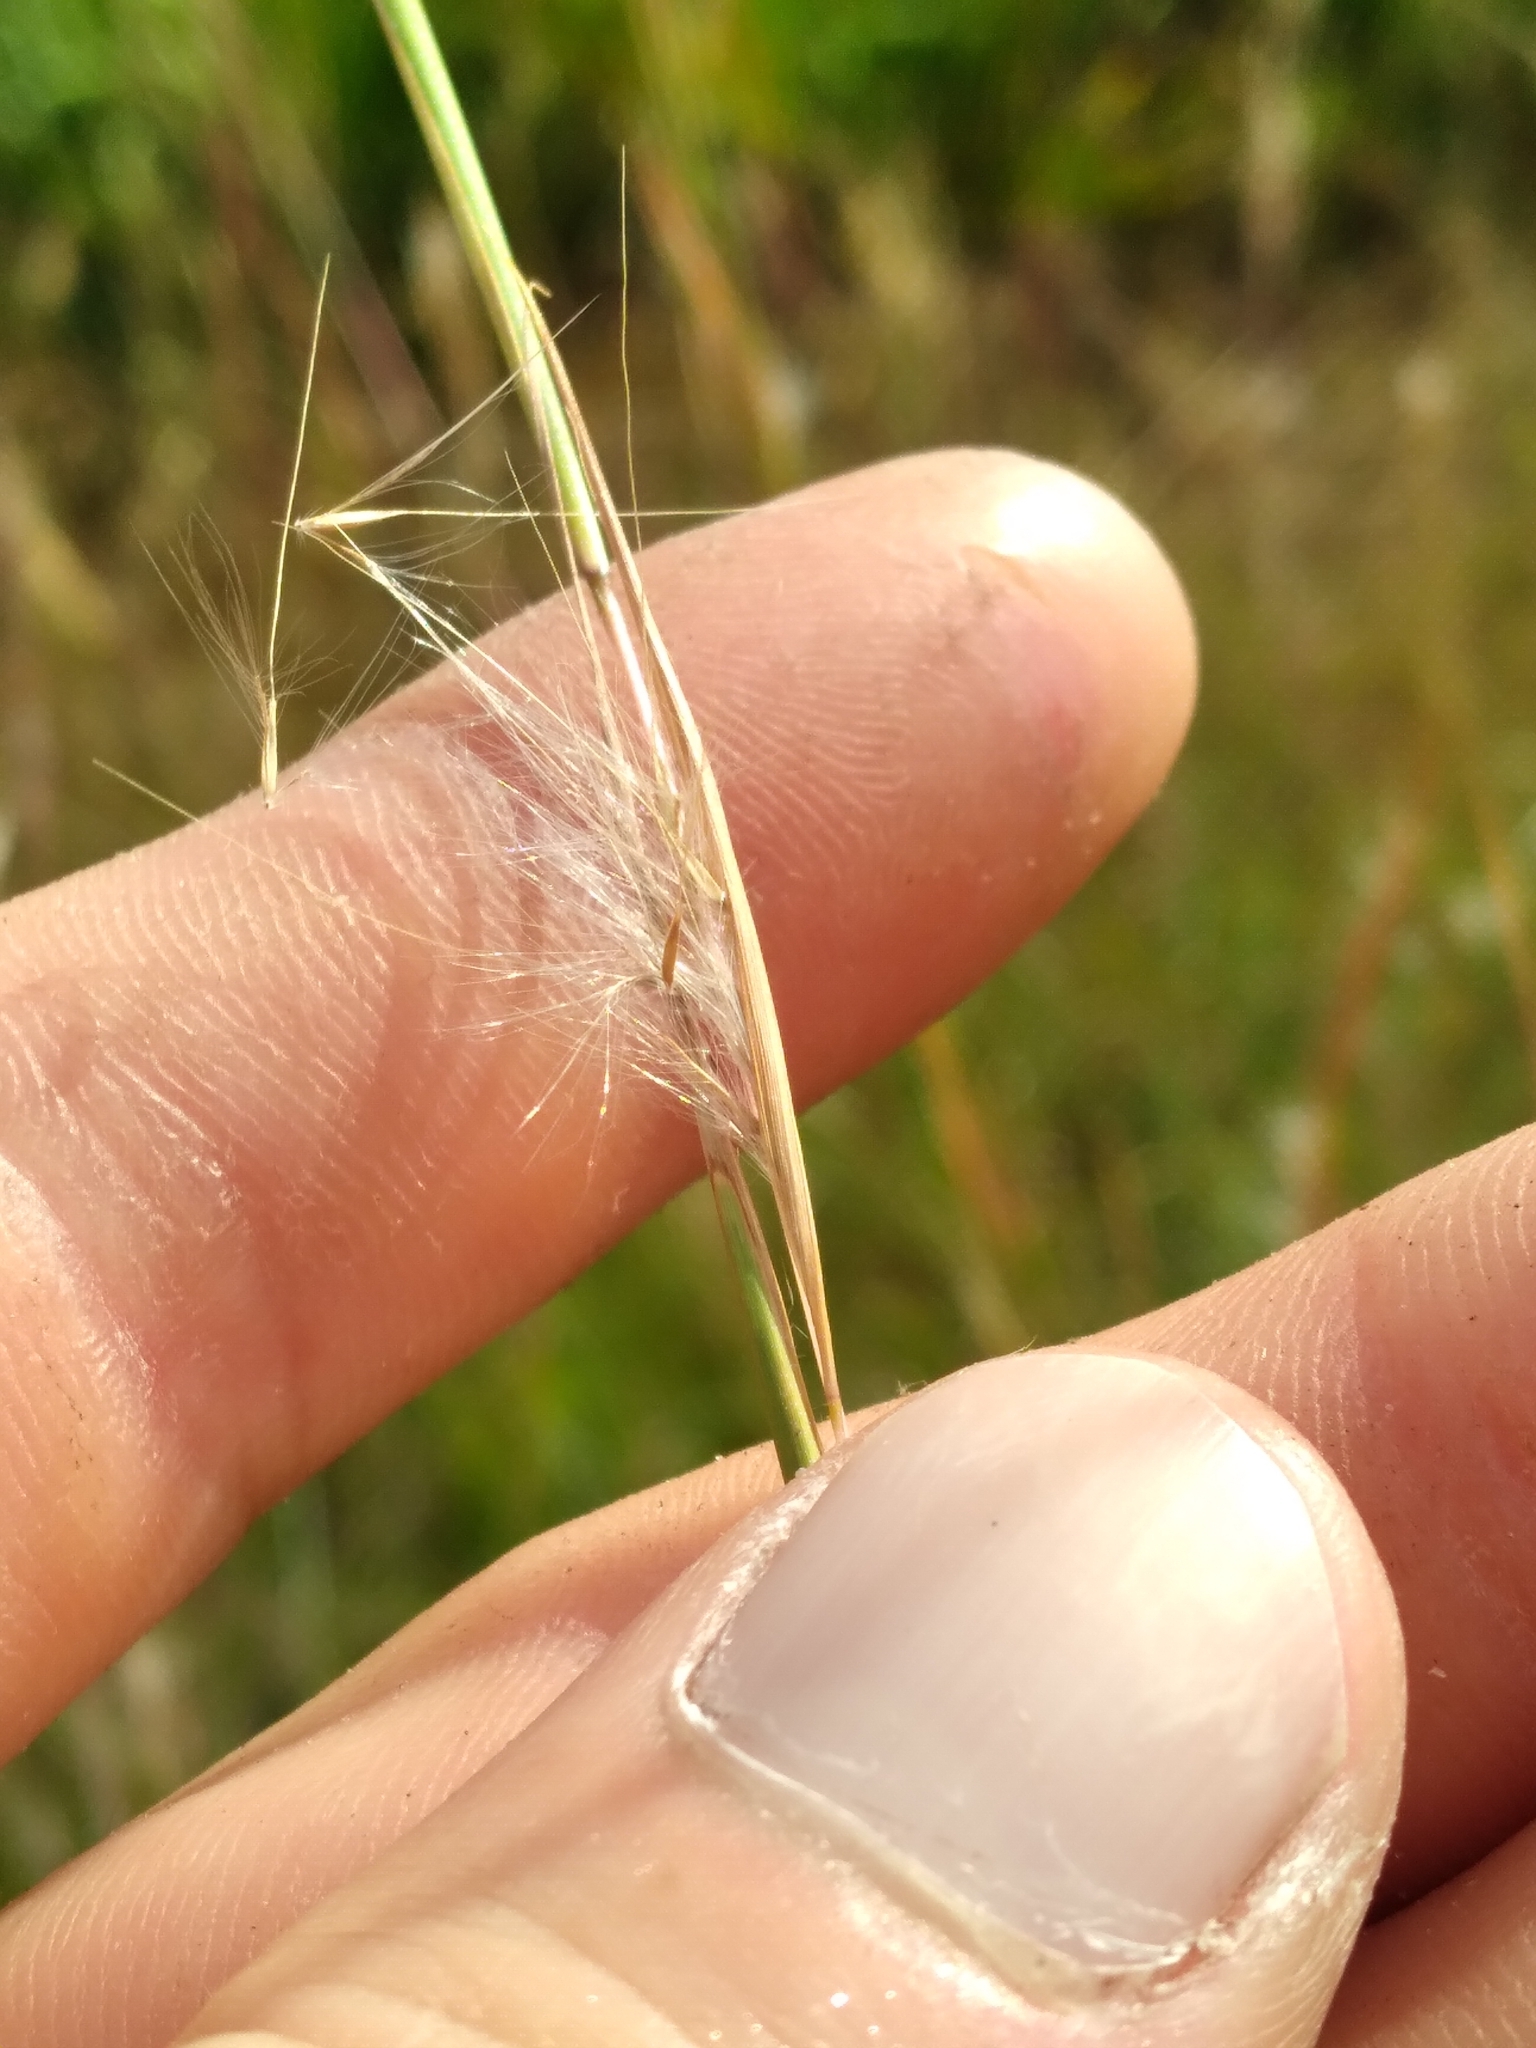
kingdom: Plantae
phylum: Tracheophyta
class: Liliopsida
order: Poales
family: Poaceae
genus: Andropogon
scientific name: Andropogon virginicus
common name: Broomsedge bluestem
